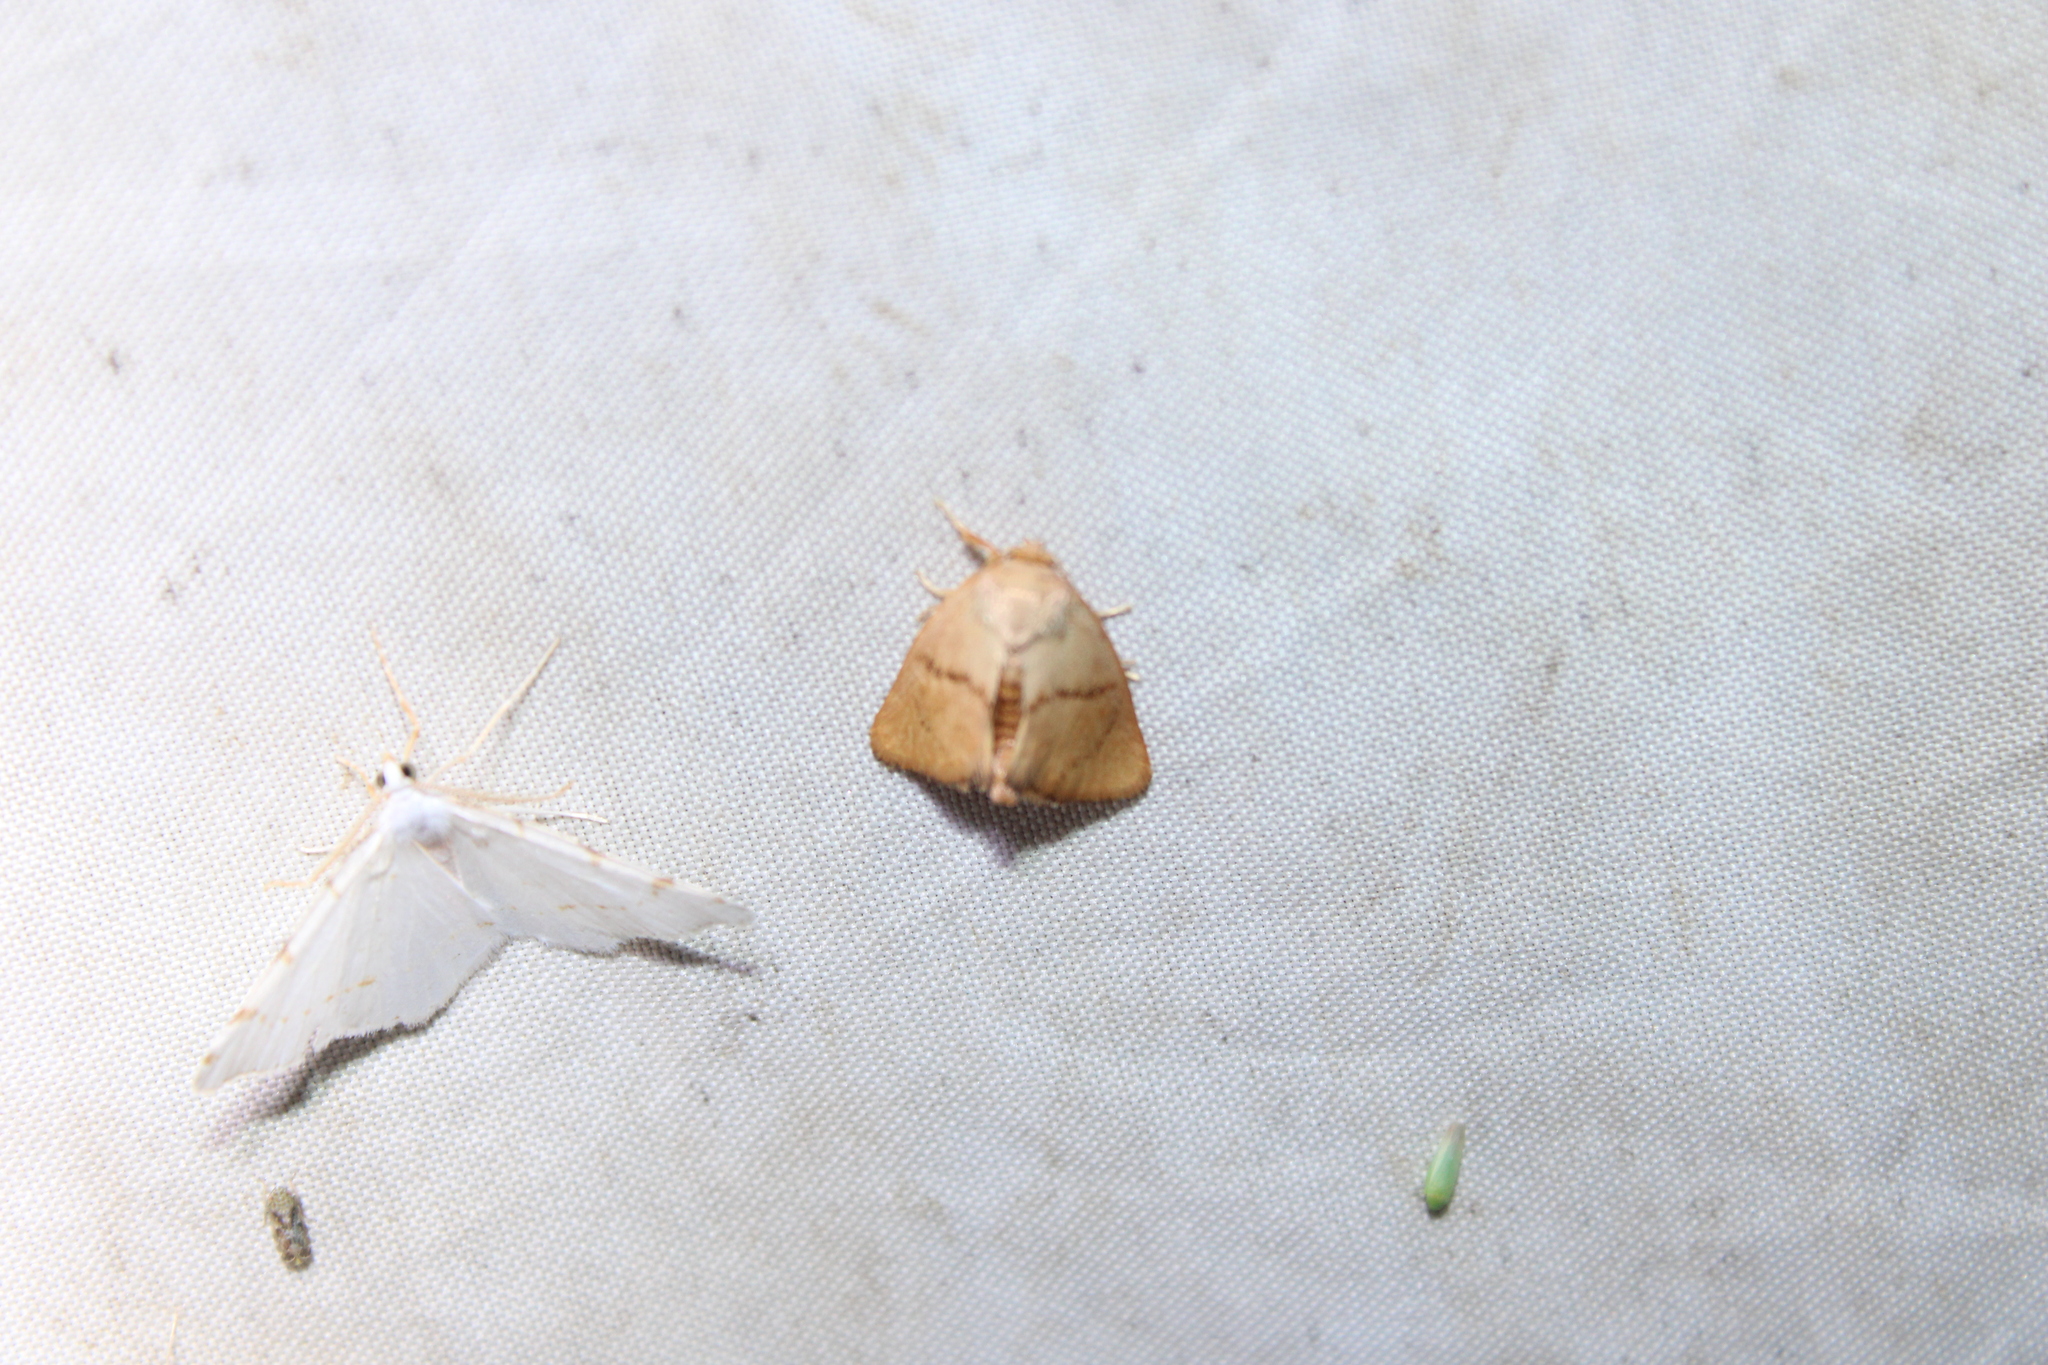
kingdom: Animalia
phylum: Arthropoda
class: Insecta
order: Lepidoptera
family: Limacodidae
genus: Tortricidia
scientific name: Tortricidia pallida
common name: Red-crossed button slug moth
